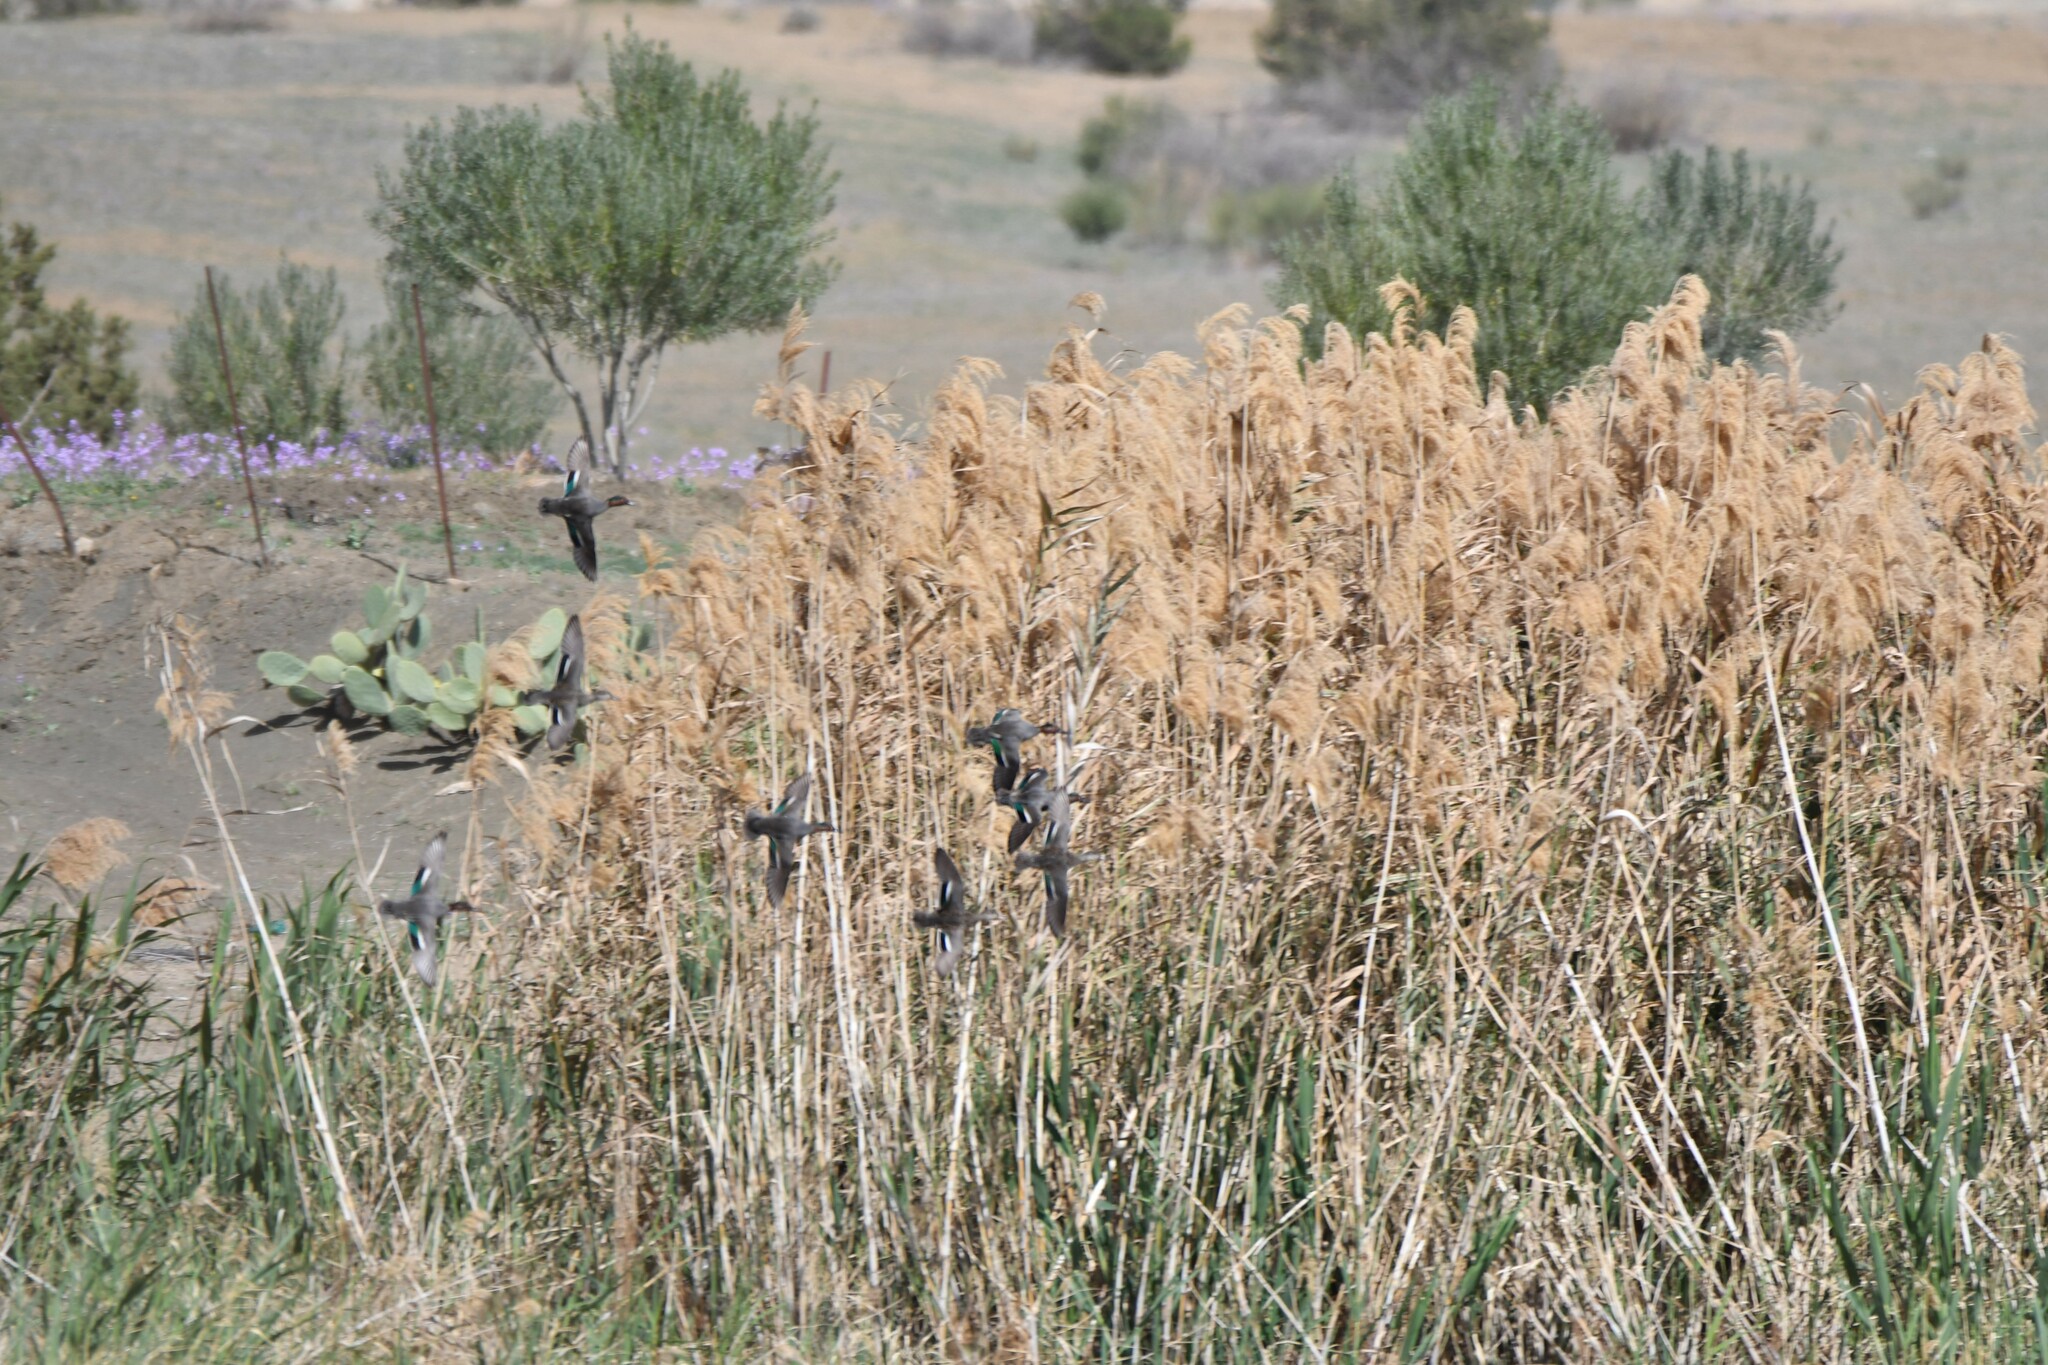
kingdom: Animalia
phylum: Chordata
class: Aves
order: Anseriformes
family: Anatidae
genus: Anas
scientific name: Anas crecca
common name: Eurasian teal
